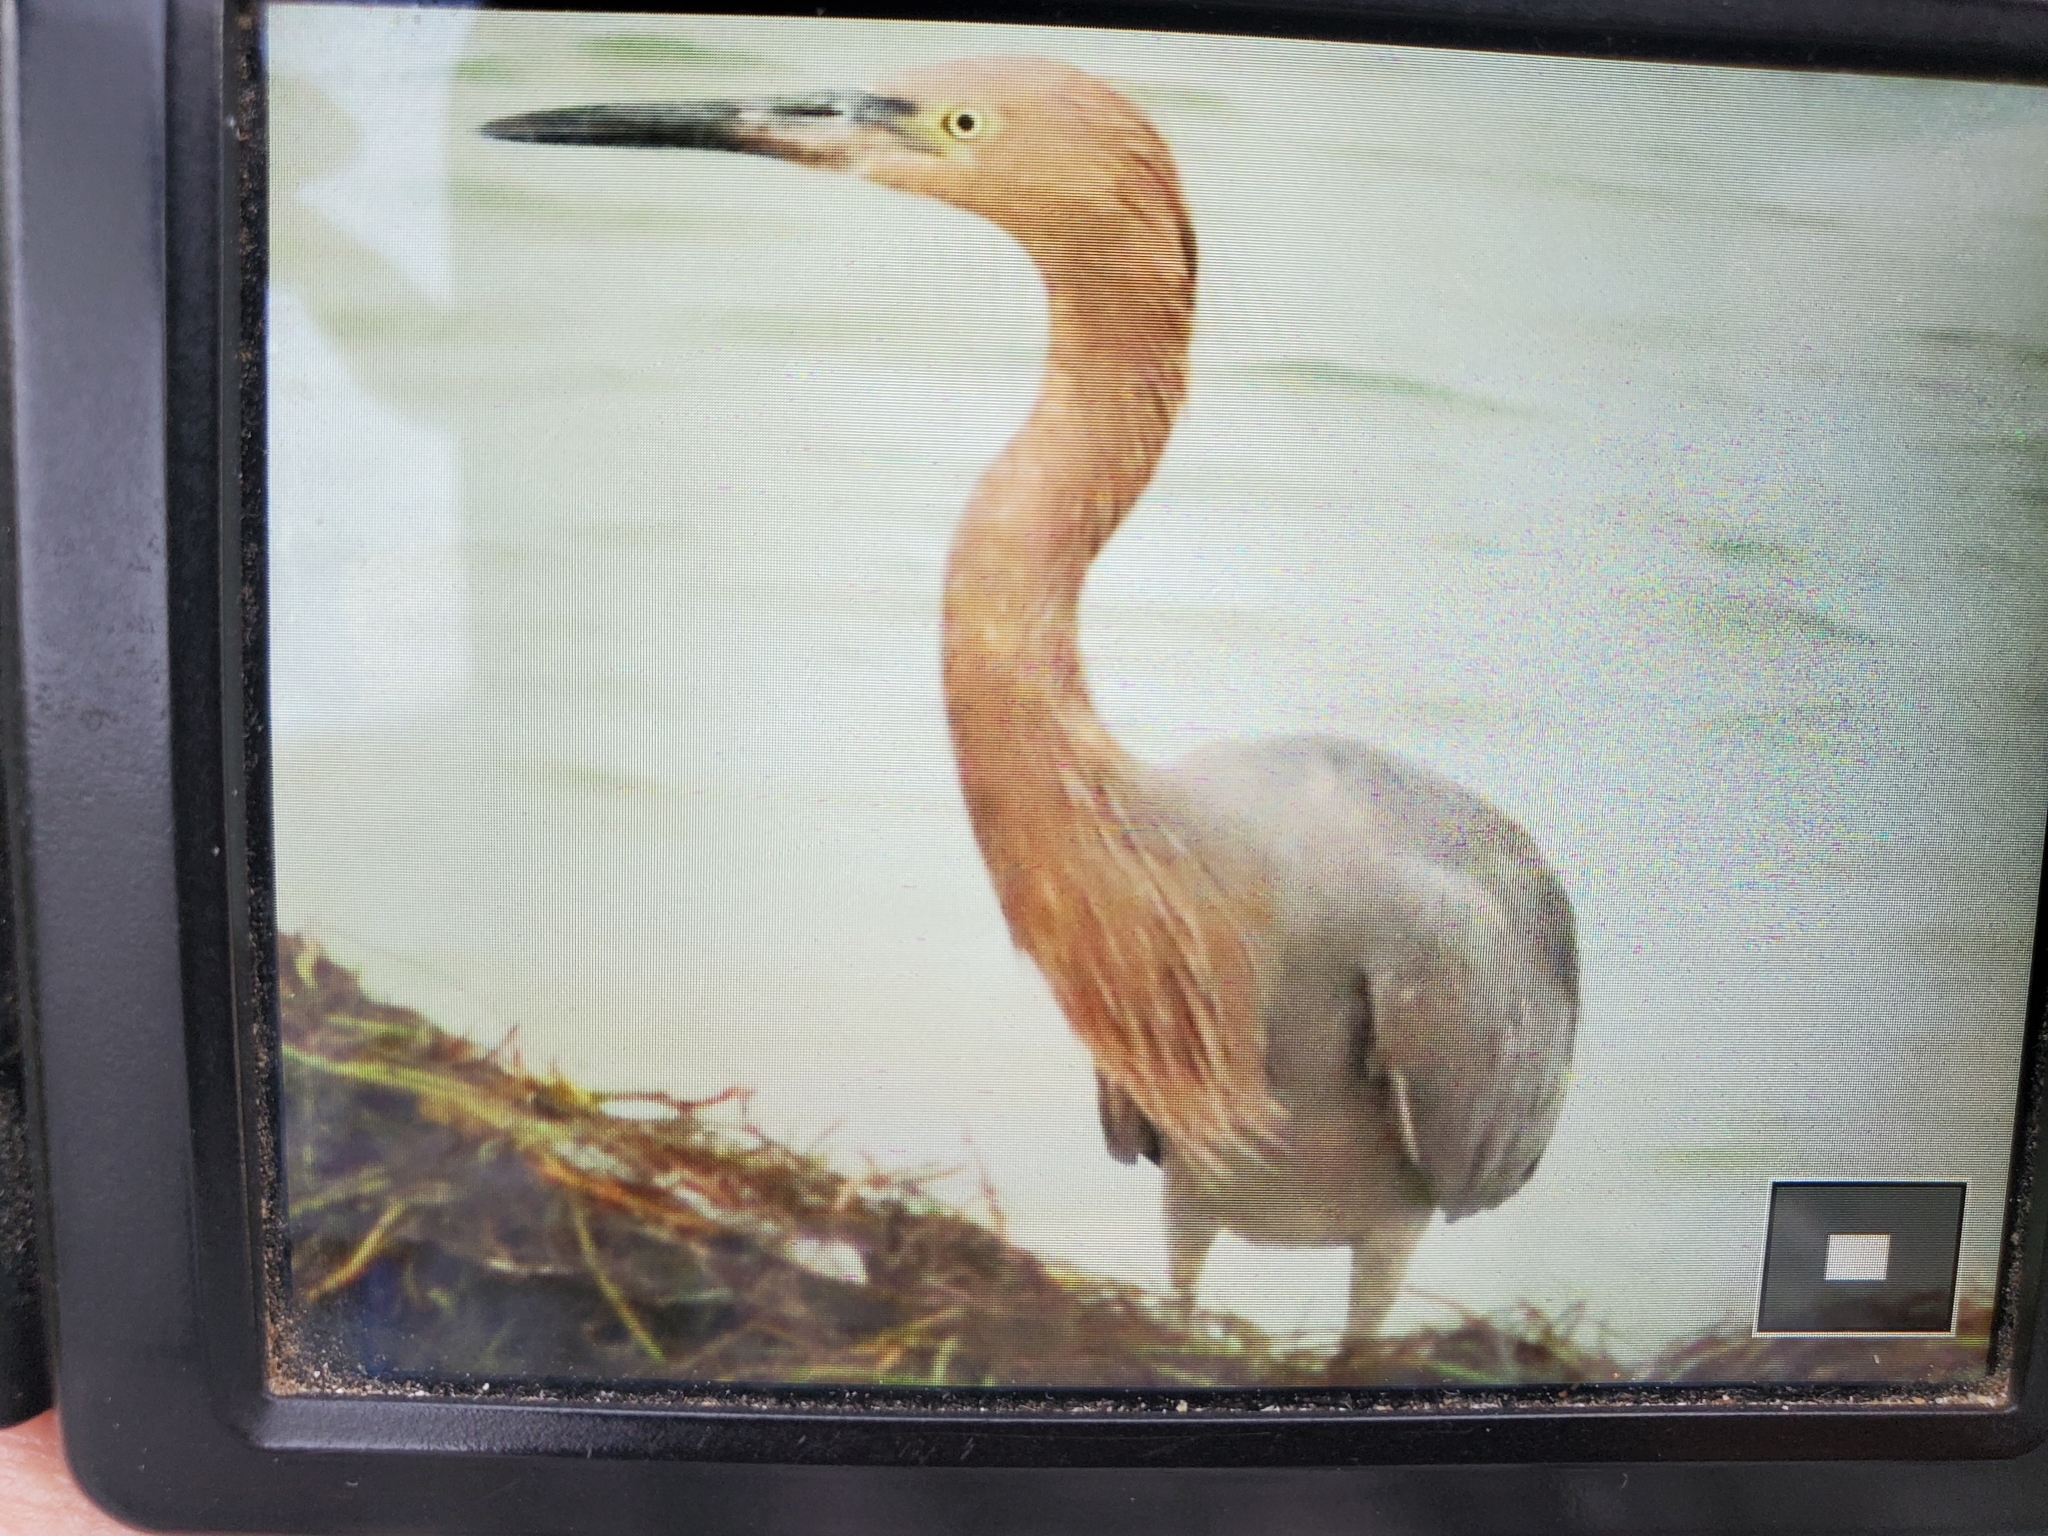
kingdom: Animalia
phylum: Chordata
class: Aves
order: Pelecaniformes
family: Ardeidae
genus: Egretta
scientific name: Egretta rufescens
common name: Reddish egret
